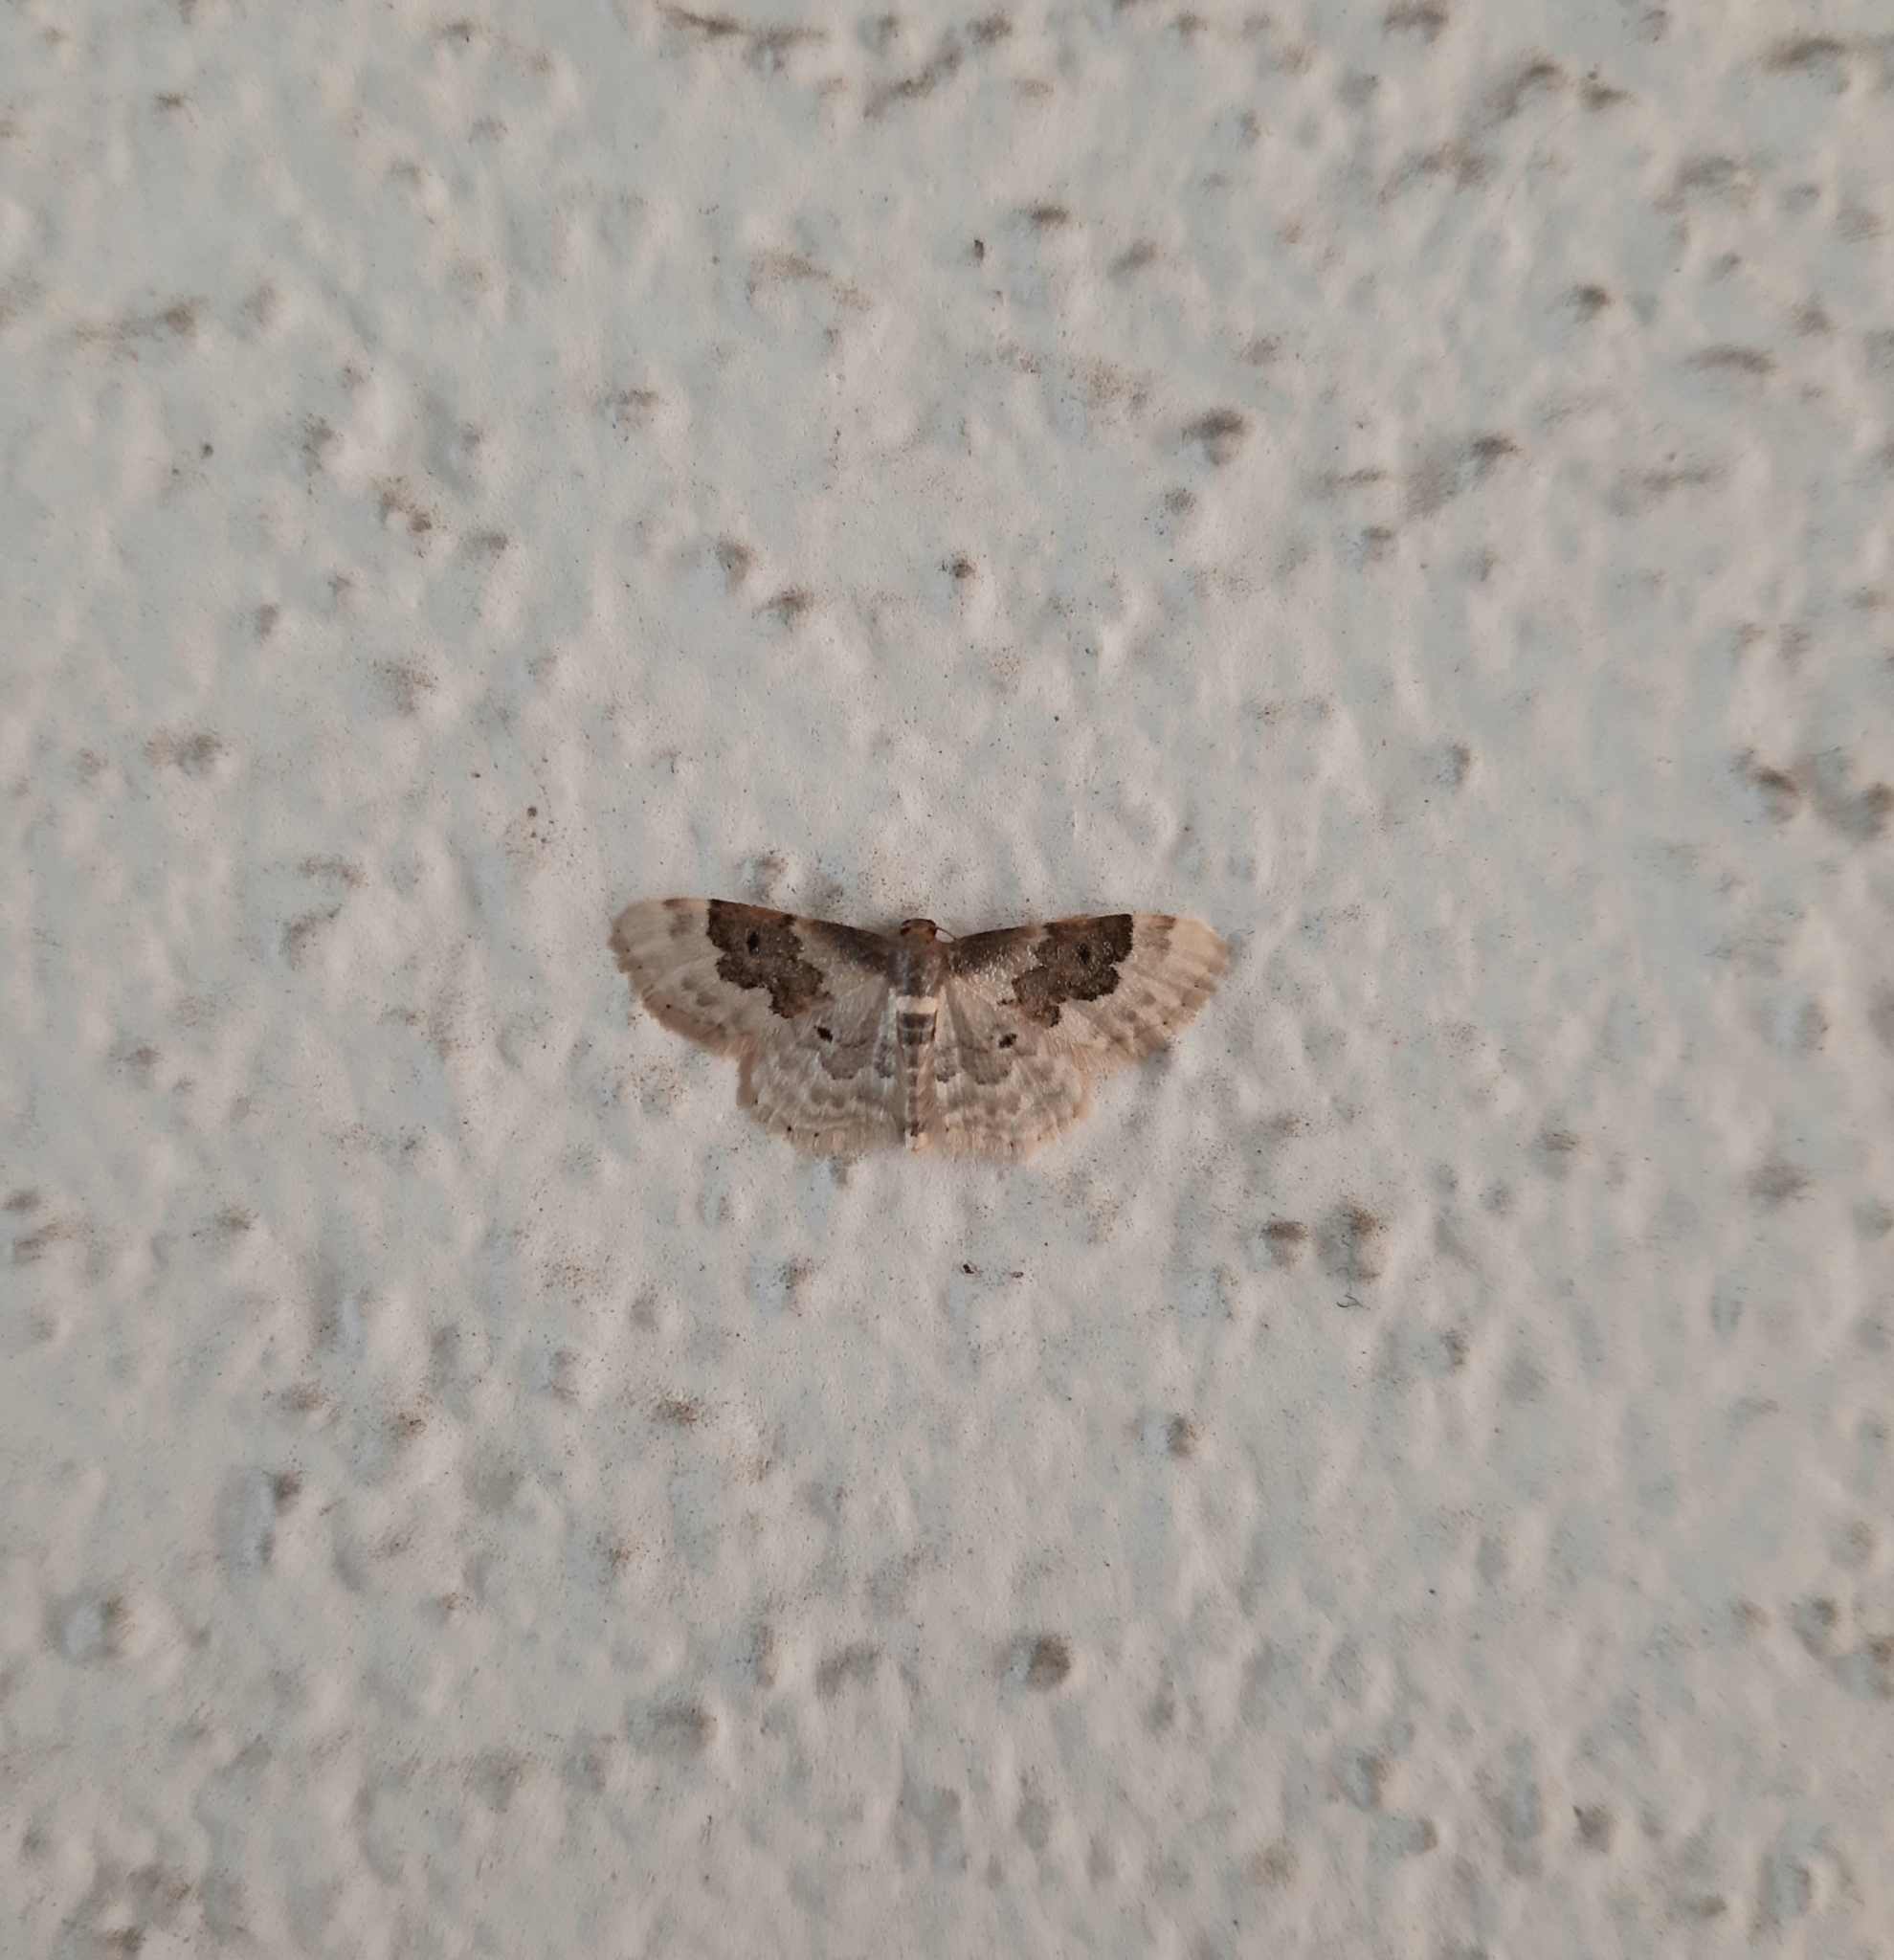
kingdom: Animalia
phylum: Arthropoda
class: Insecta
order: Lepidoptera
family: Geometridae
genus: Idaea
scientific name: Idaea rusticata
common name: Least carpet
